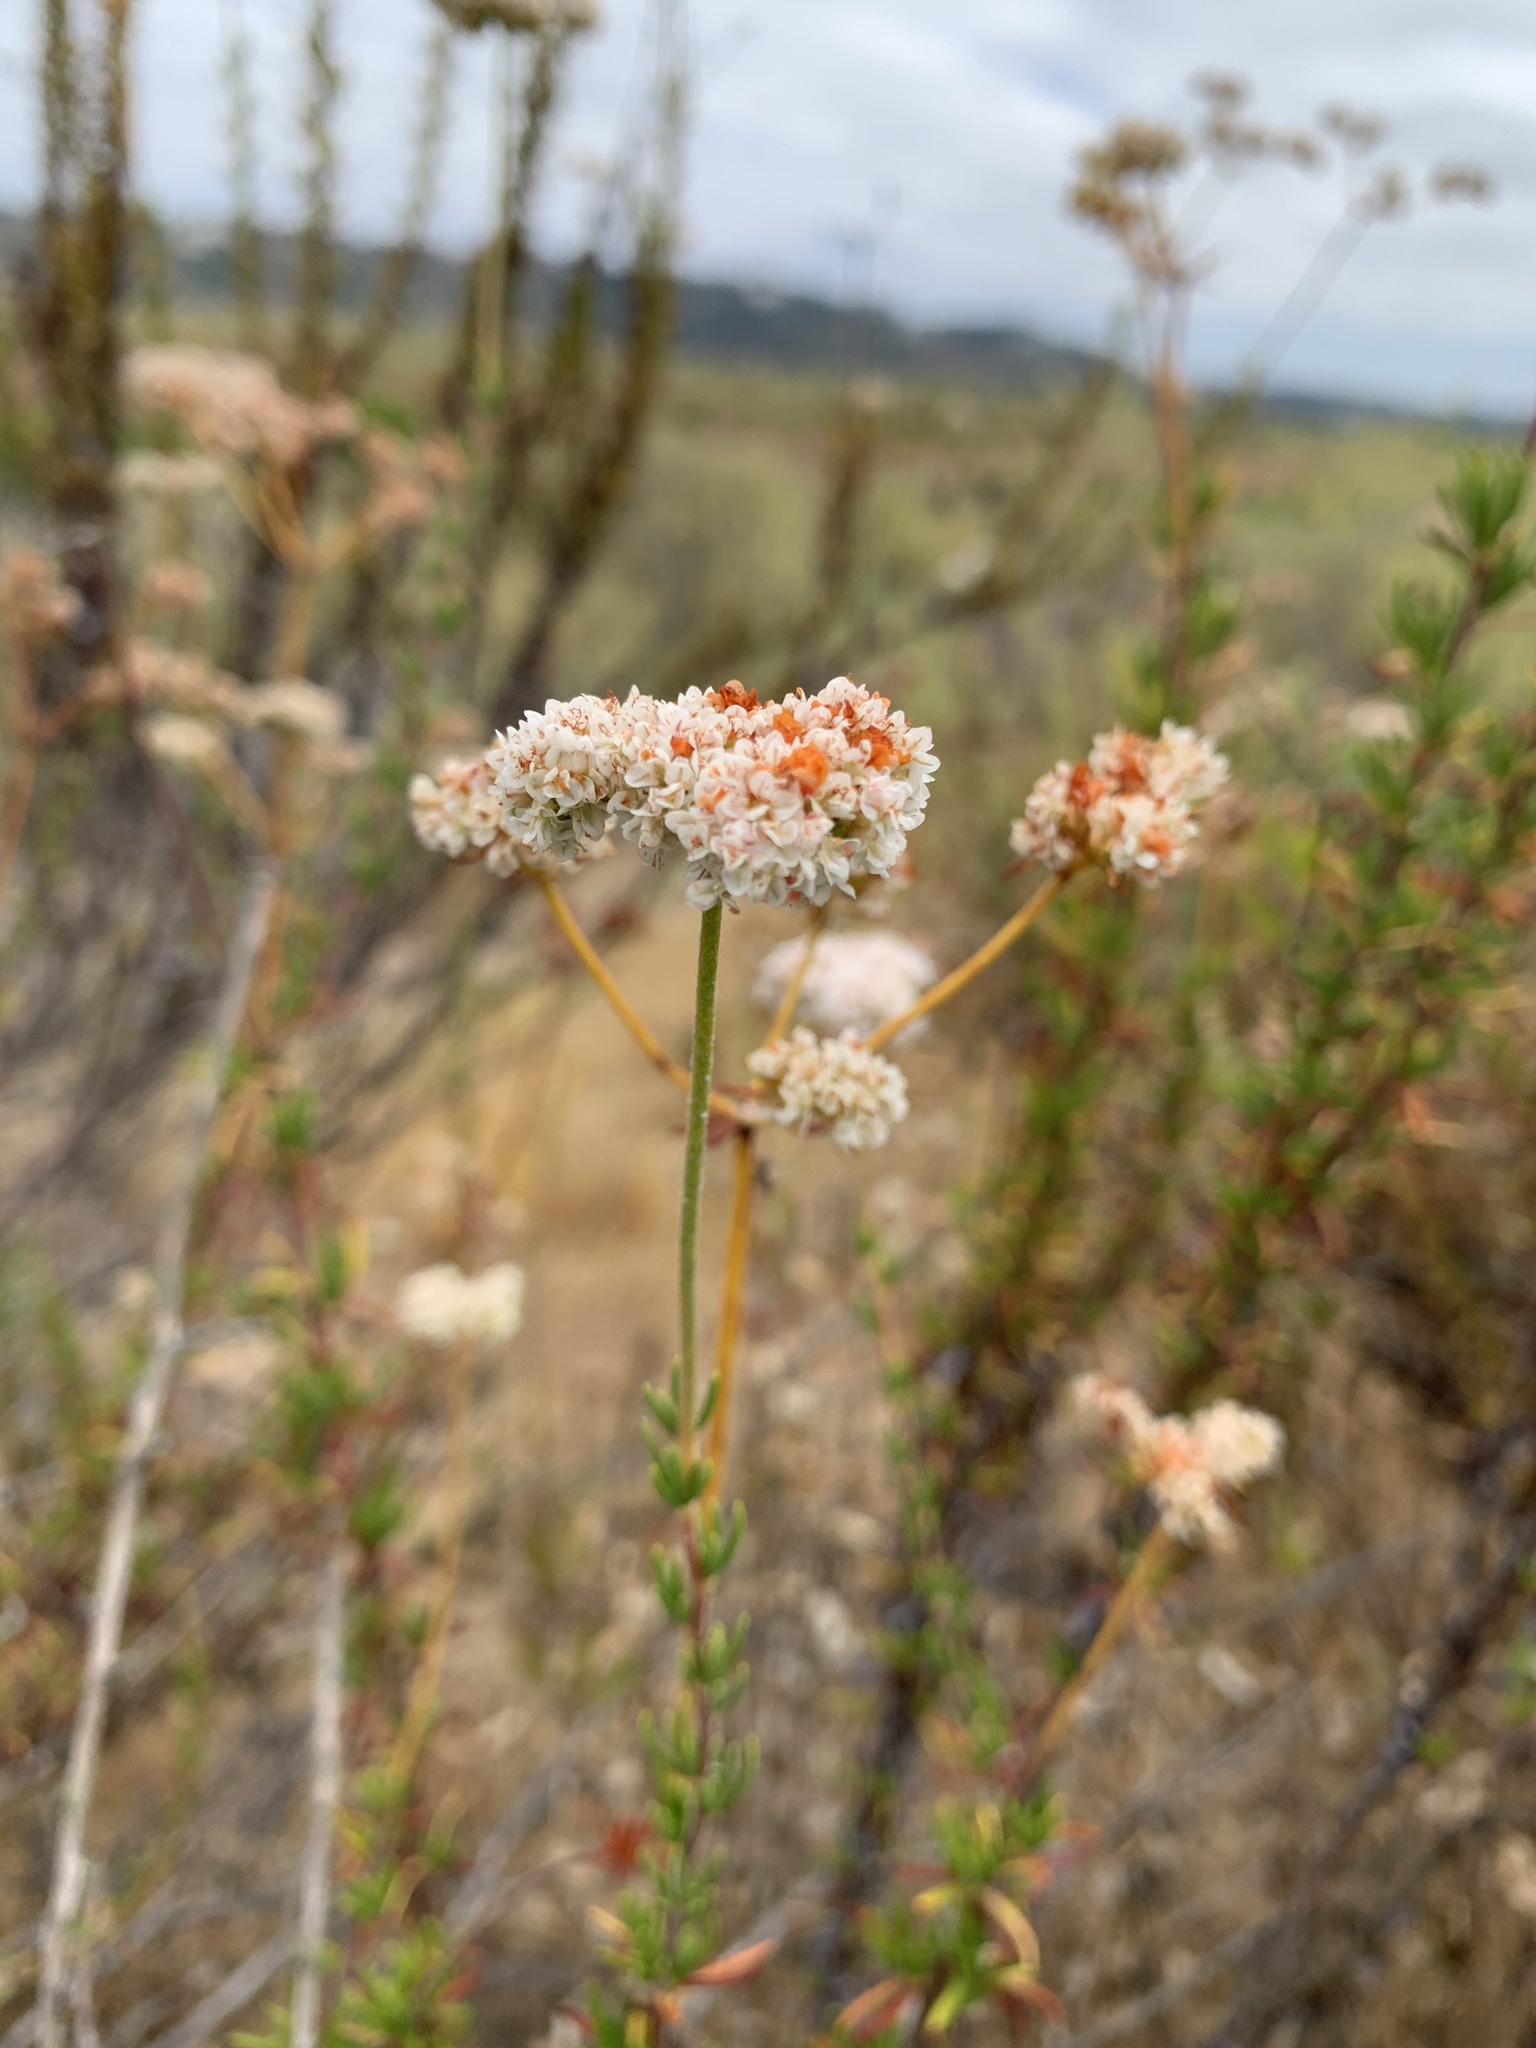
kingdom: Plantae
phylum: Tracheophyta
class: Magnoliopsida
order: Caryophyllales
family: Polygonaceae
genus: Eriogonum
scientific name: Eriogonum fasciculatum
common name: California wild buckwheat
